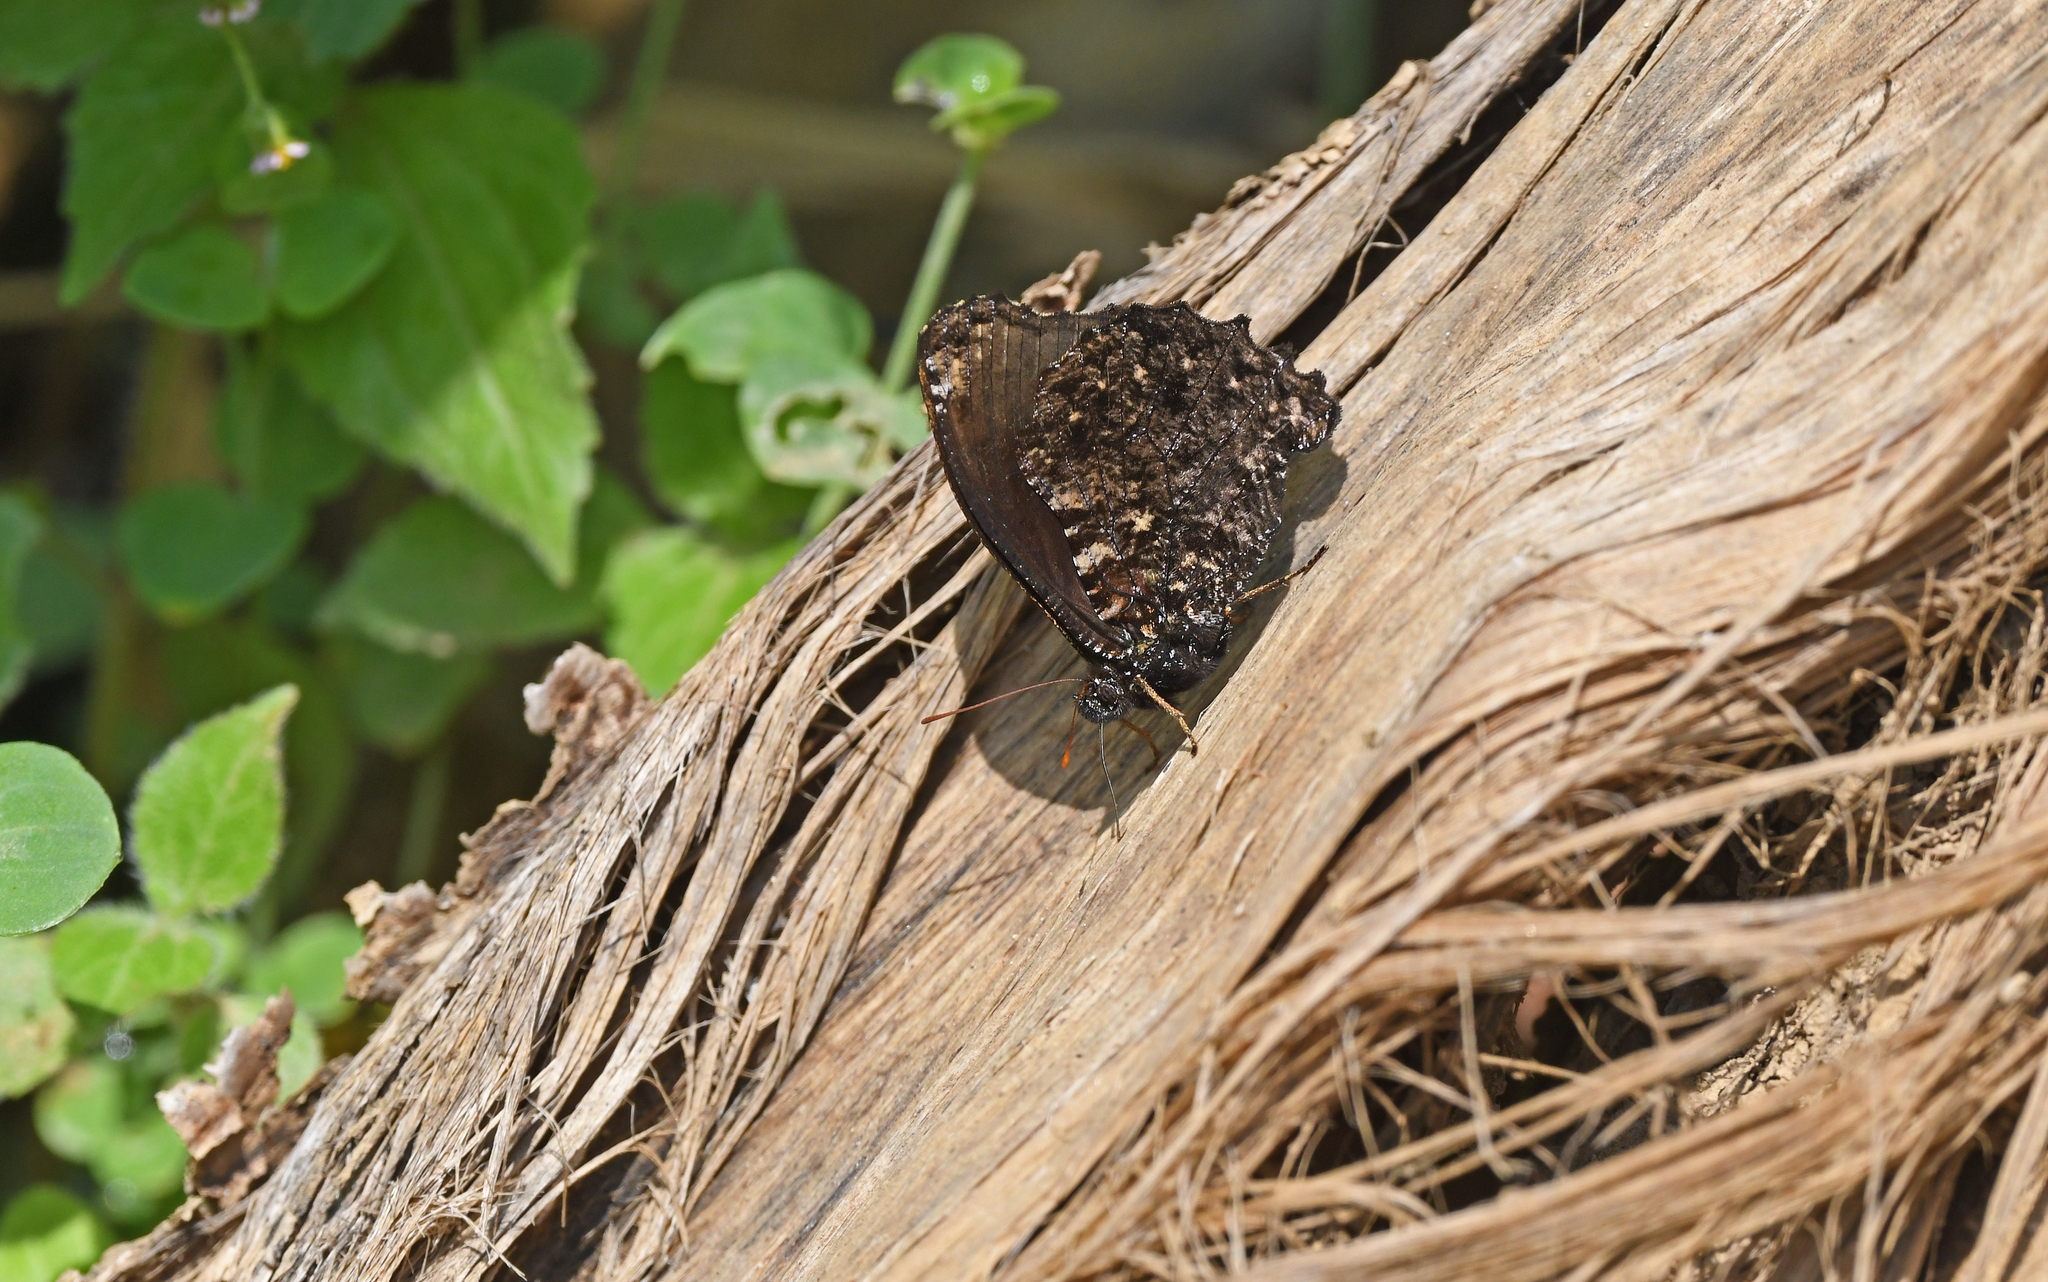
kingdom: Animalia
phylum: Arthropoda
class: Insecta
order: Lepidoptera
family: Nymphalidae
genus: Steroma
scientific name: Steroma superba
